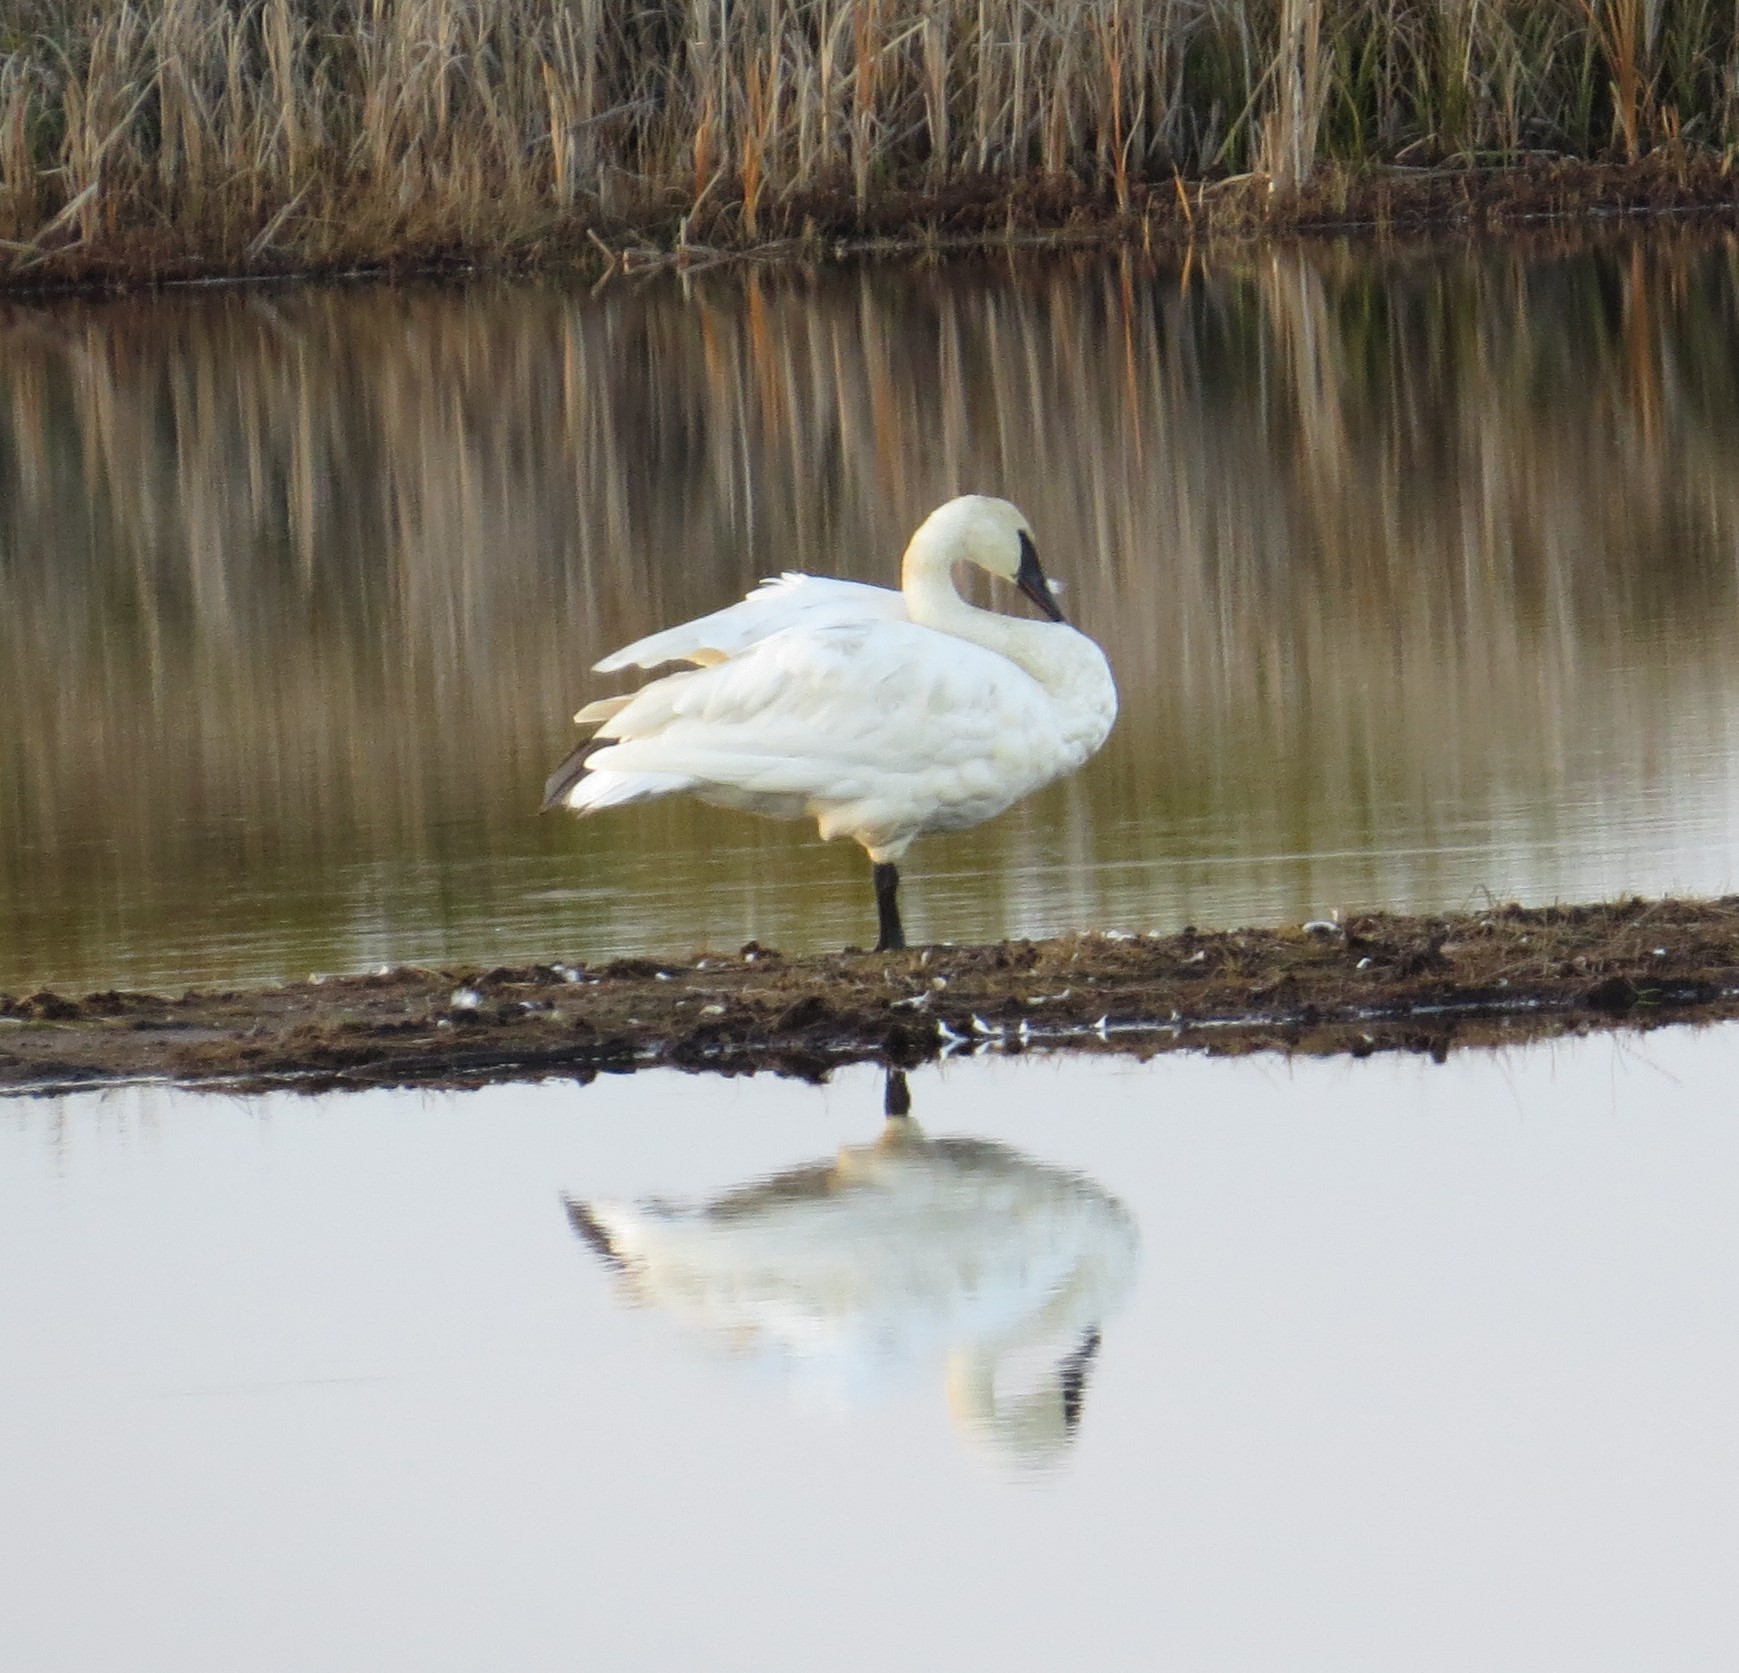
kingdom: Animalia
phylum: Chordata
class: Aves
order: Anseriformes
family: Anatidae
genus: Cygnus
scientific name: Cygnus buccinator
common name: Trumpeter swan
